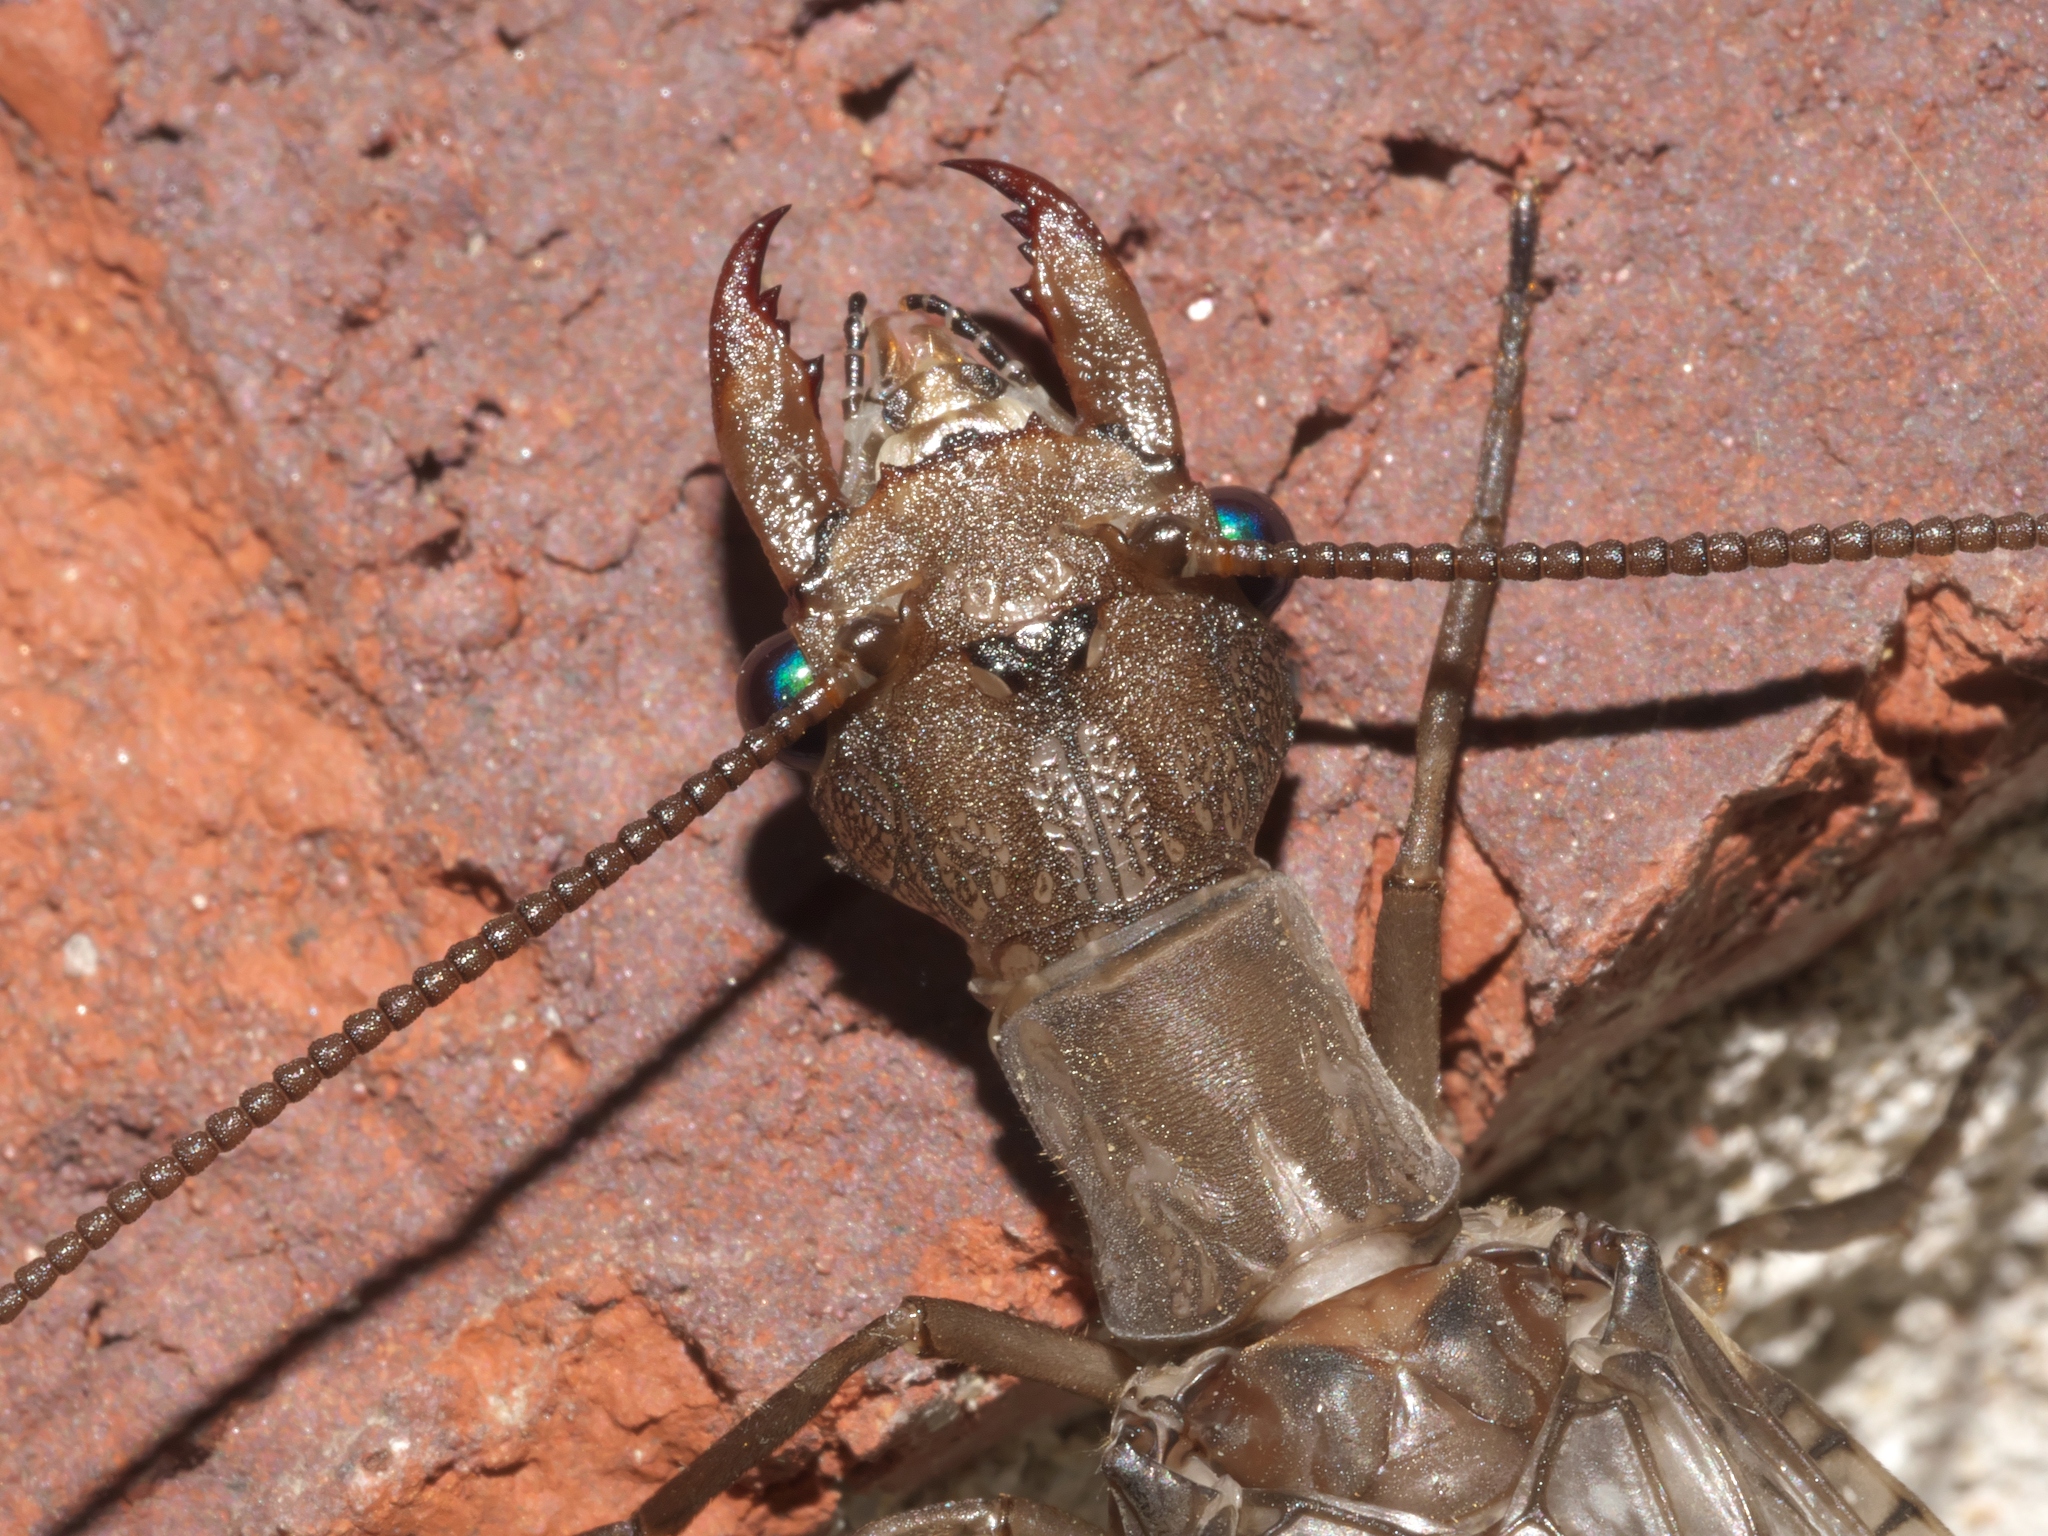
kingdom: Animalia
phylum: Arthropoda
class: Insecta
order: Megaloptera
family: Corydalidae
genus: Corydalus
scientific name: Corydalus cornutus
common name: Dobsonfly
